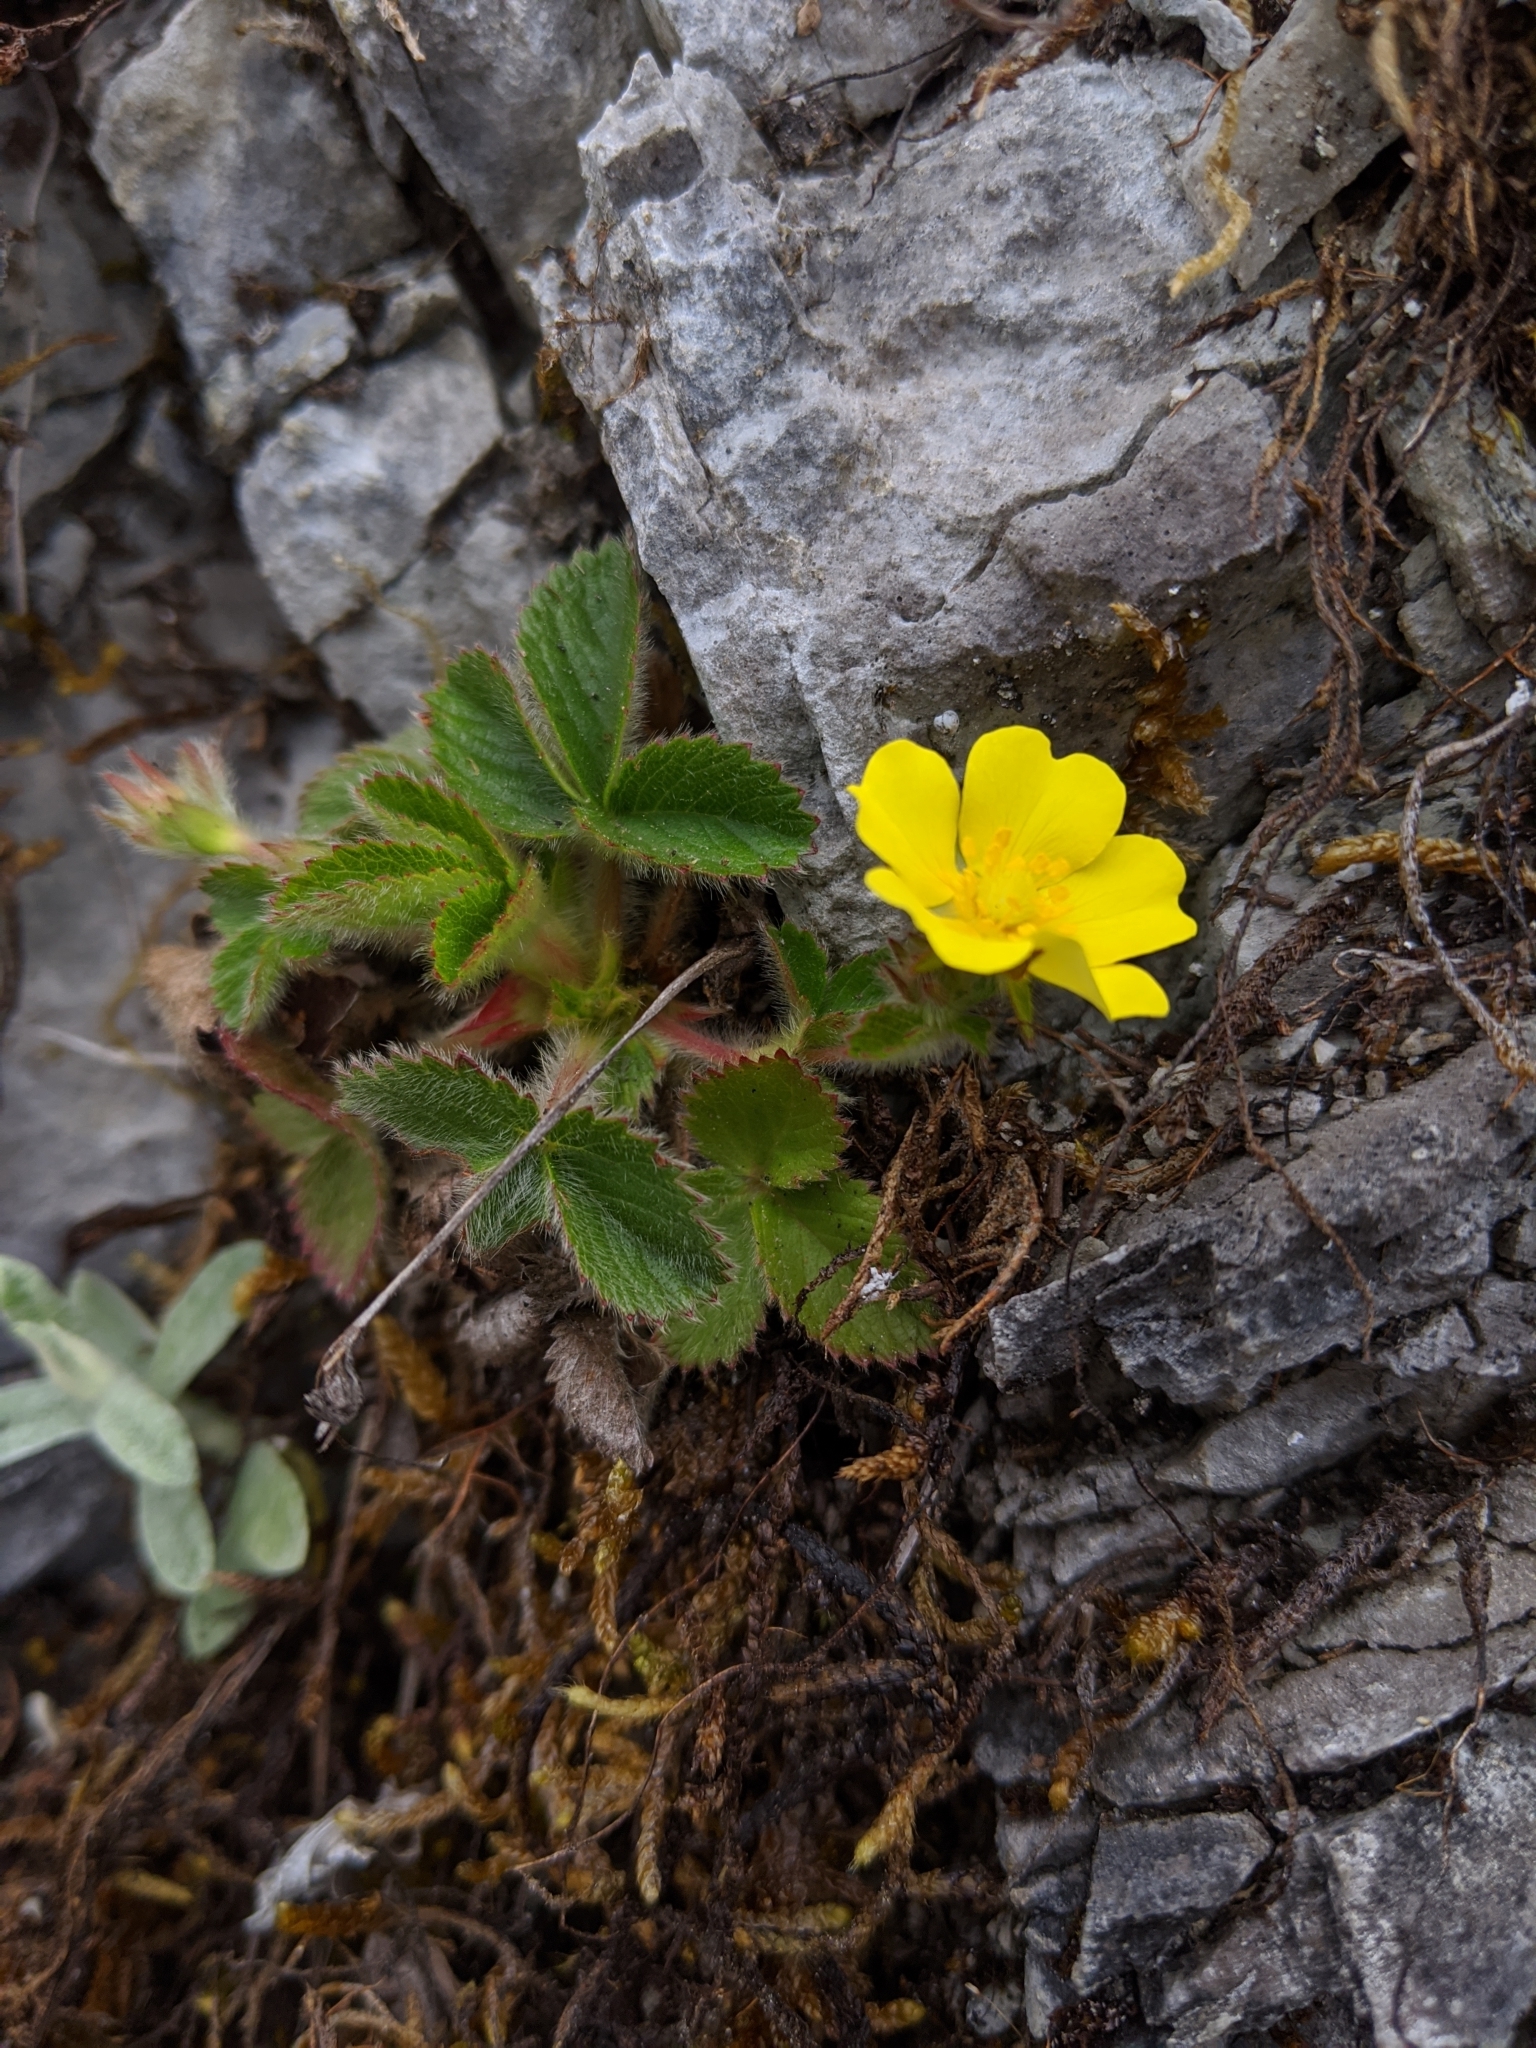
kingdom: Plantae
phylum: Tracheophyta
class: Magnoliopsida
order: Rosales
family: Rosaceae
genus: Potentilla
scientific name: Potentilla matsumurae
